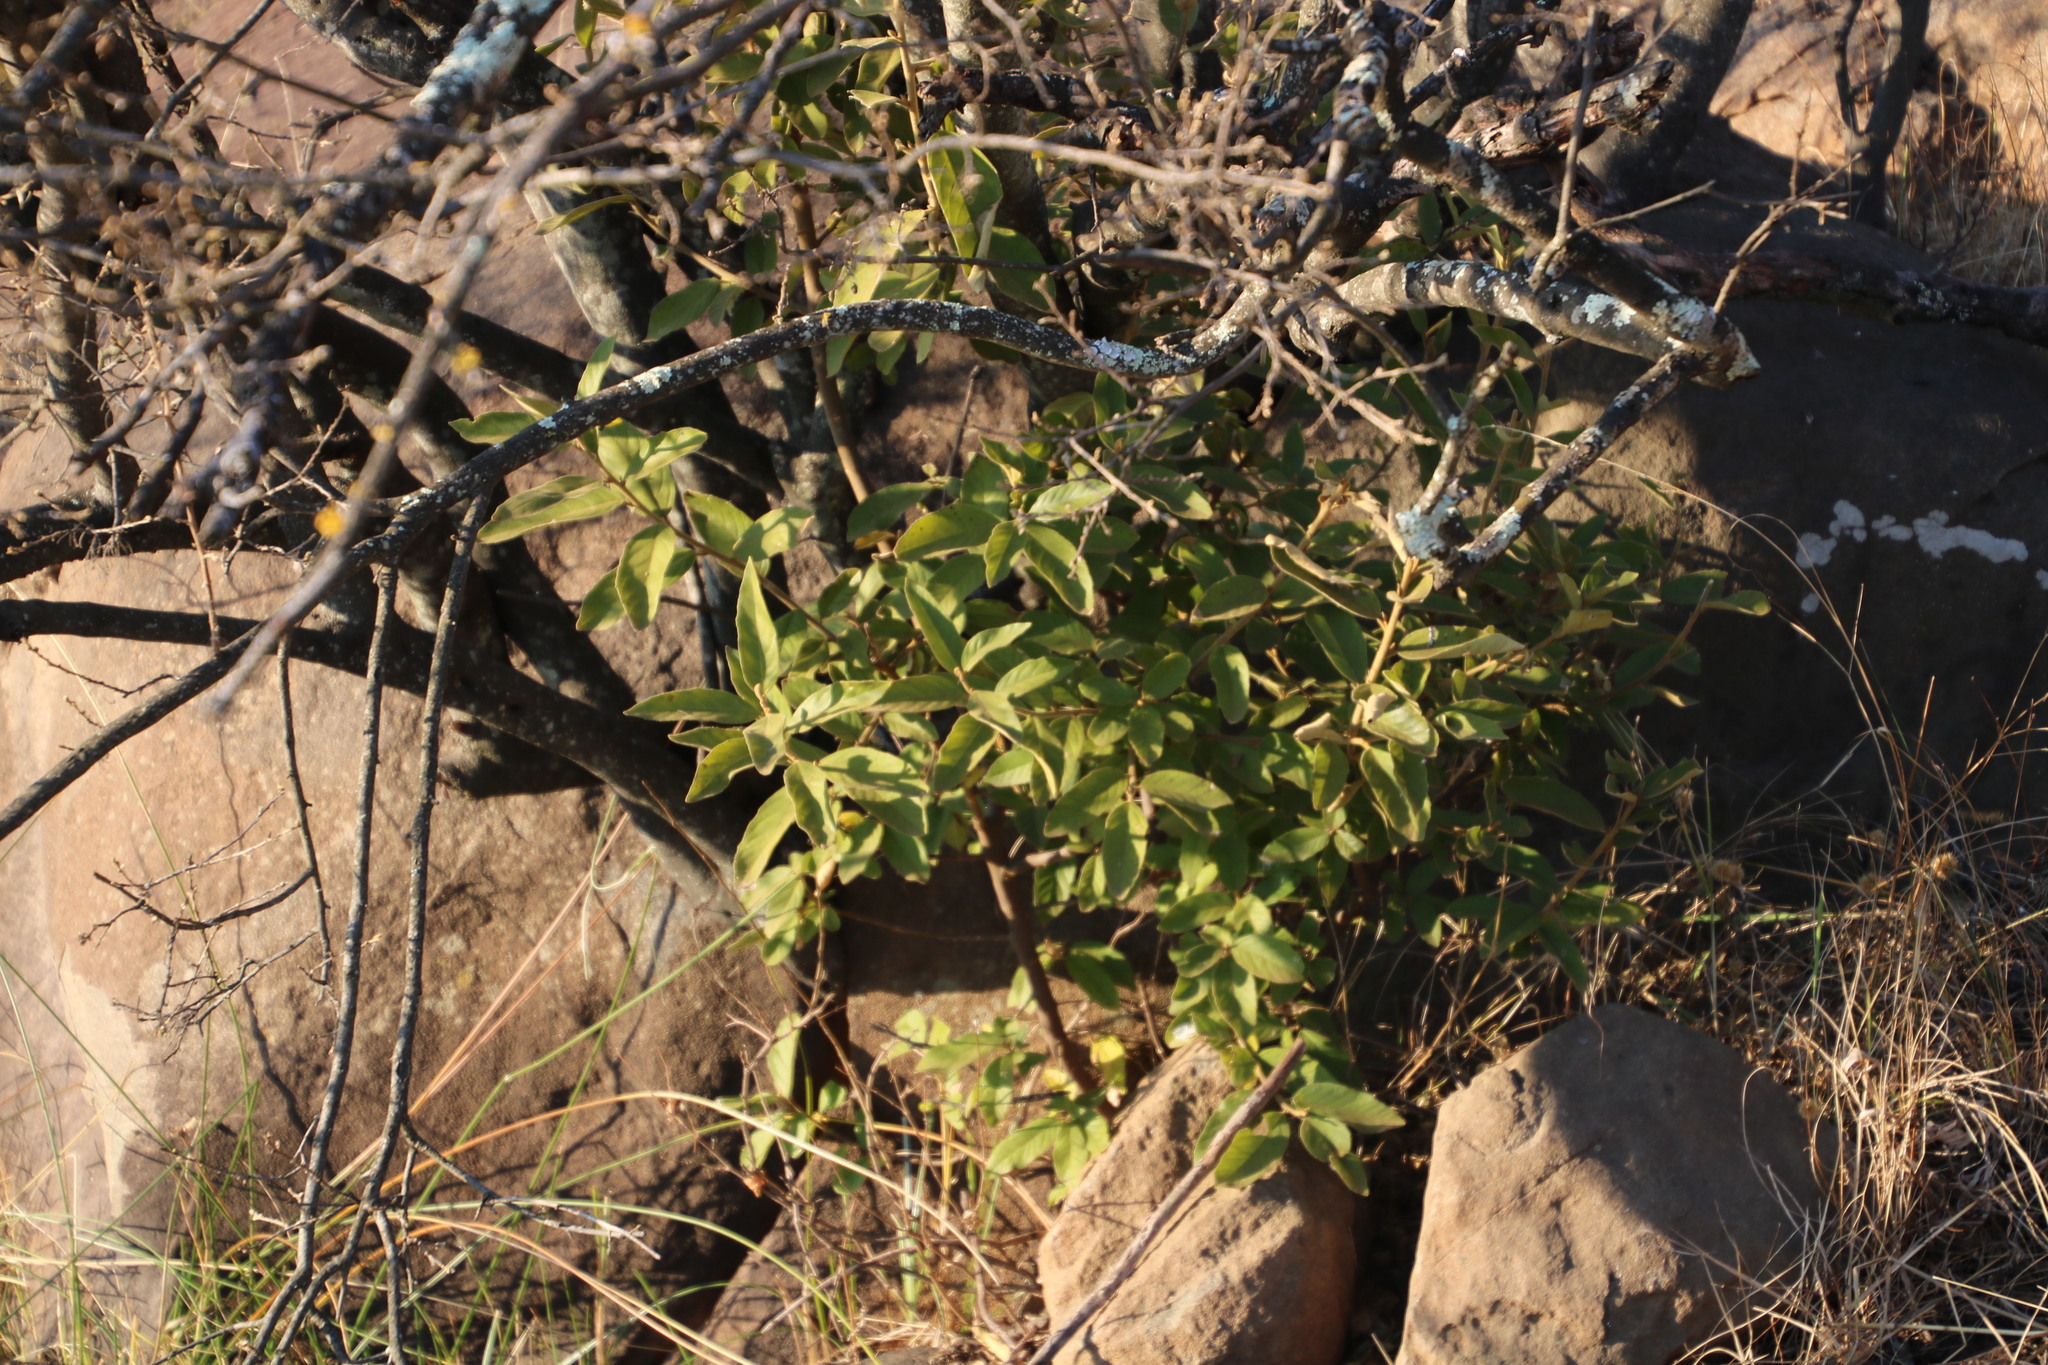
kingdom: Plantae
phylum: Tracheophyta
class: Magnoliopsida
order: Malpighiales
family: Achariaceae
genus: Kiggelaria
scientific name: Kiggelaria africana
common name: Wild peach
